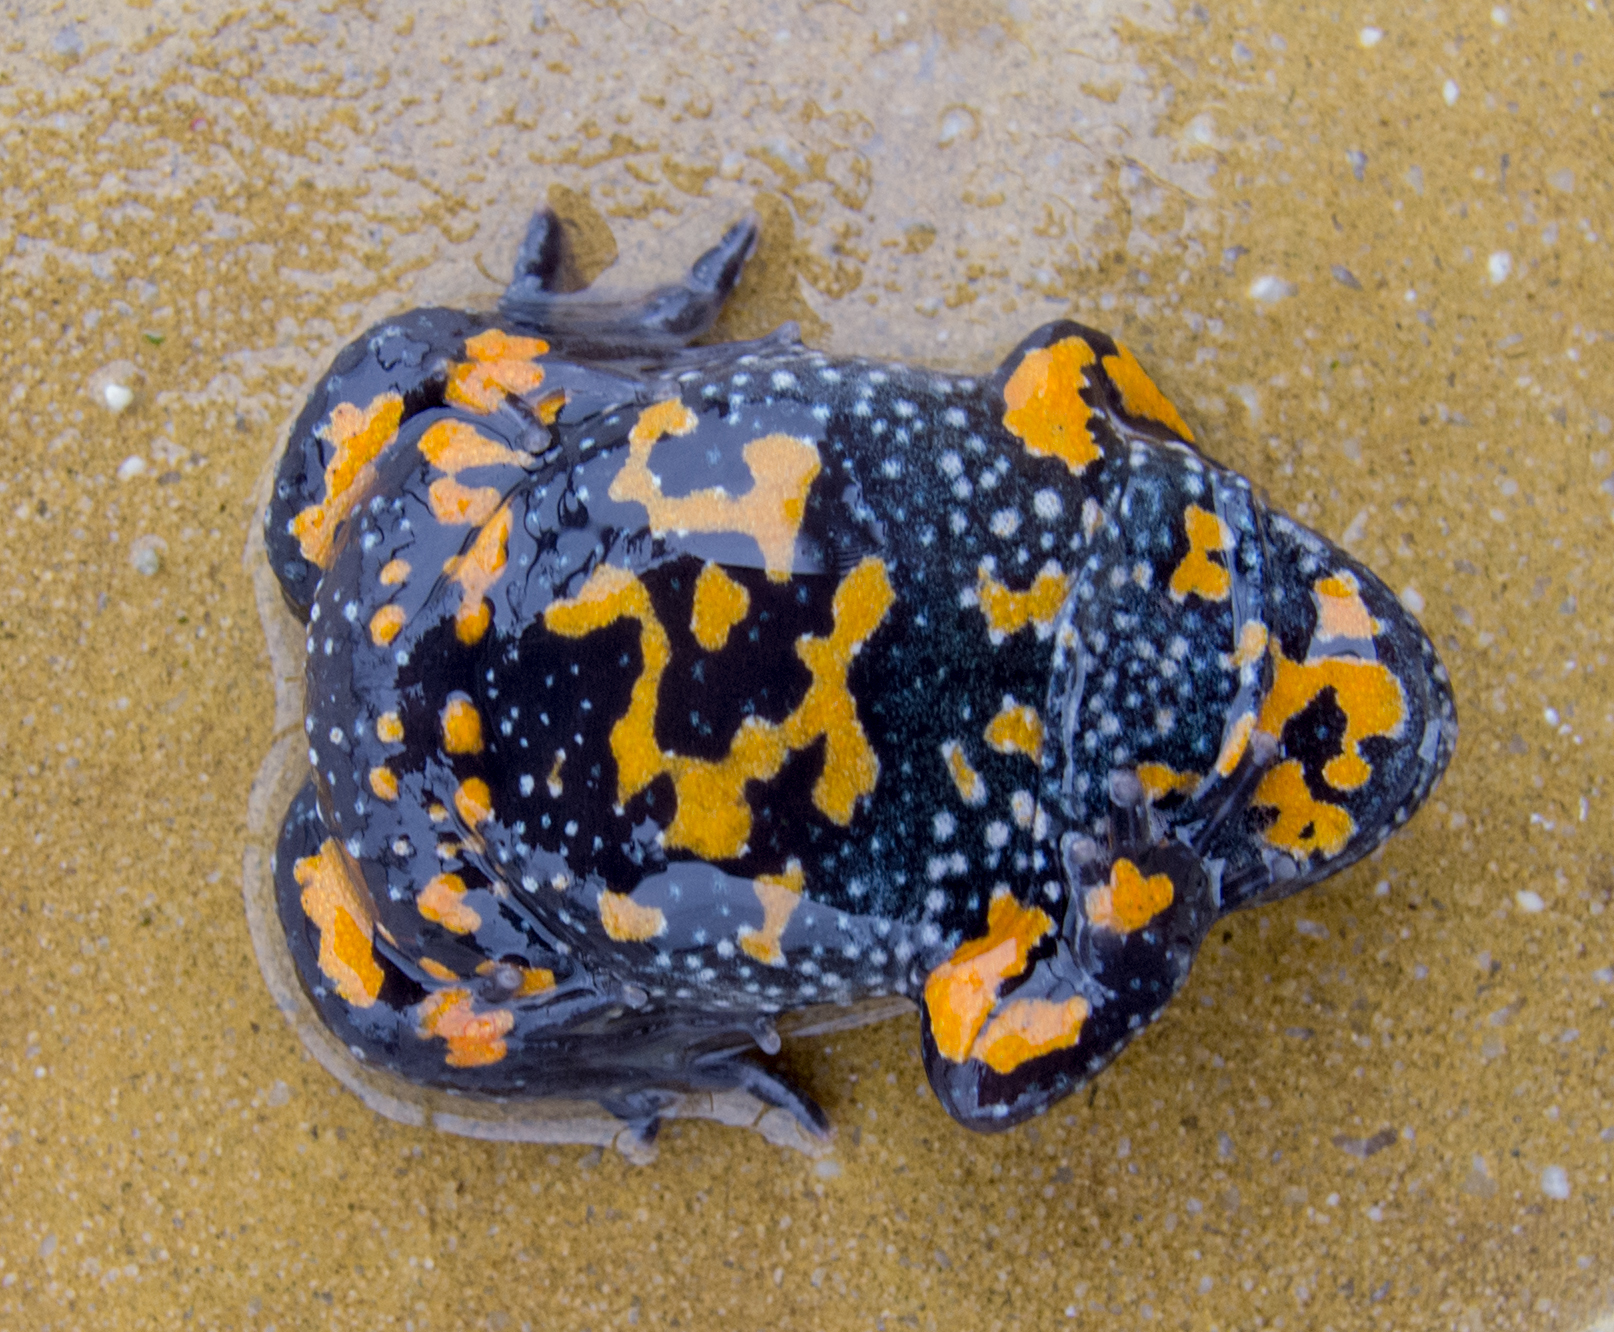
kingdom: Animalia
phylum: Chordata
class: Amphibia
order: Anura
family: Bombinatoridae
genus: Bombina
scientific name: Bombina bombina
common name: Fire-bellied toad
